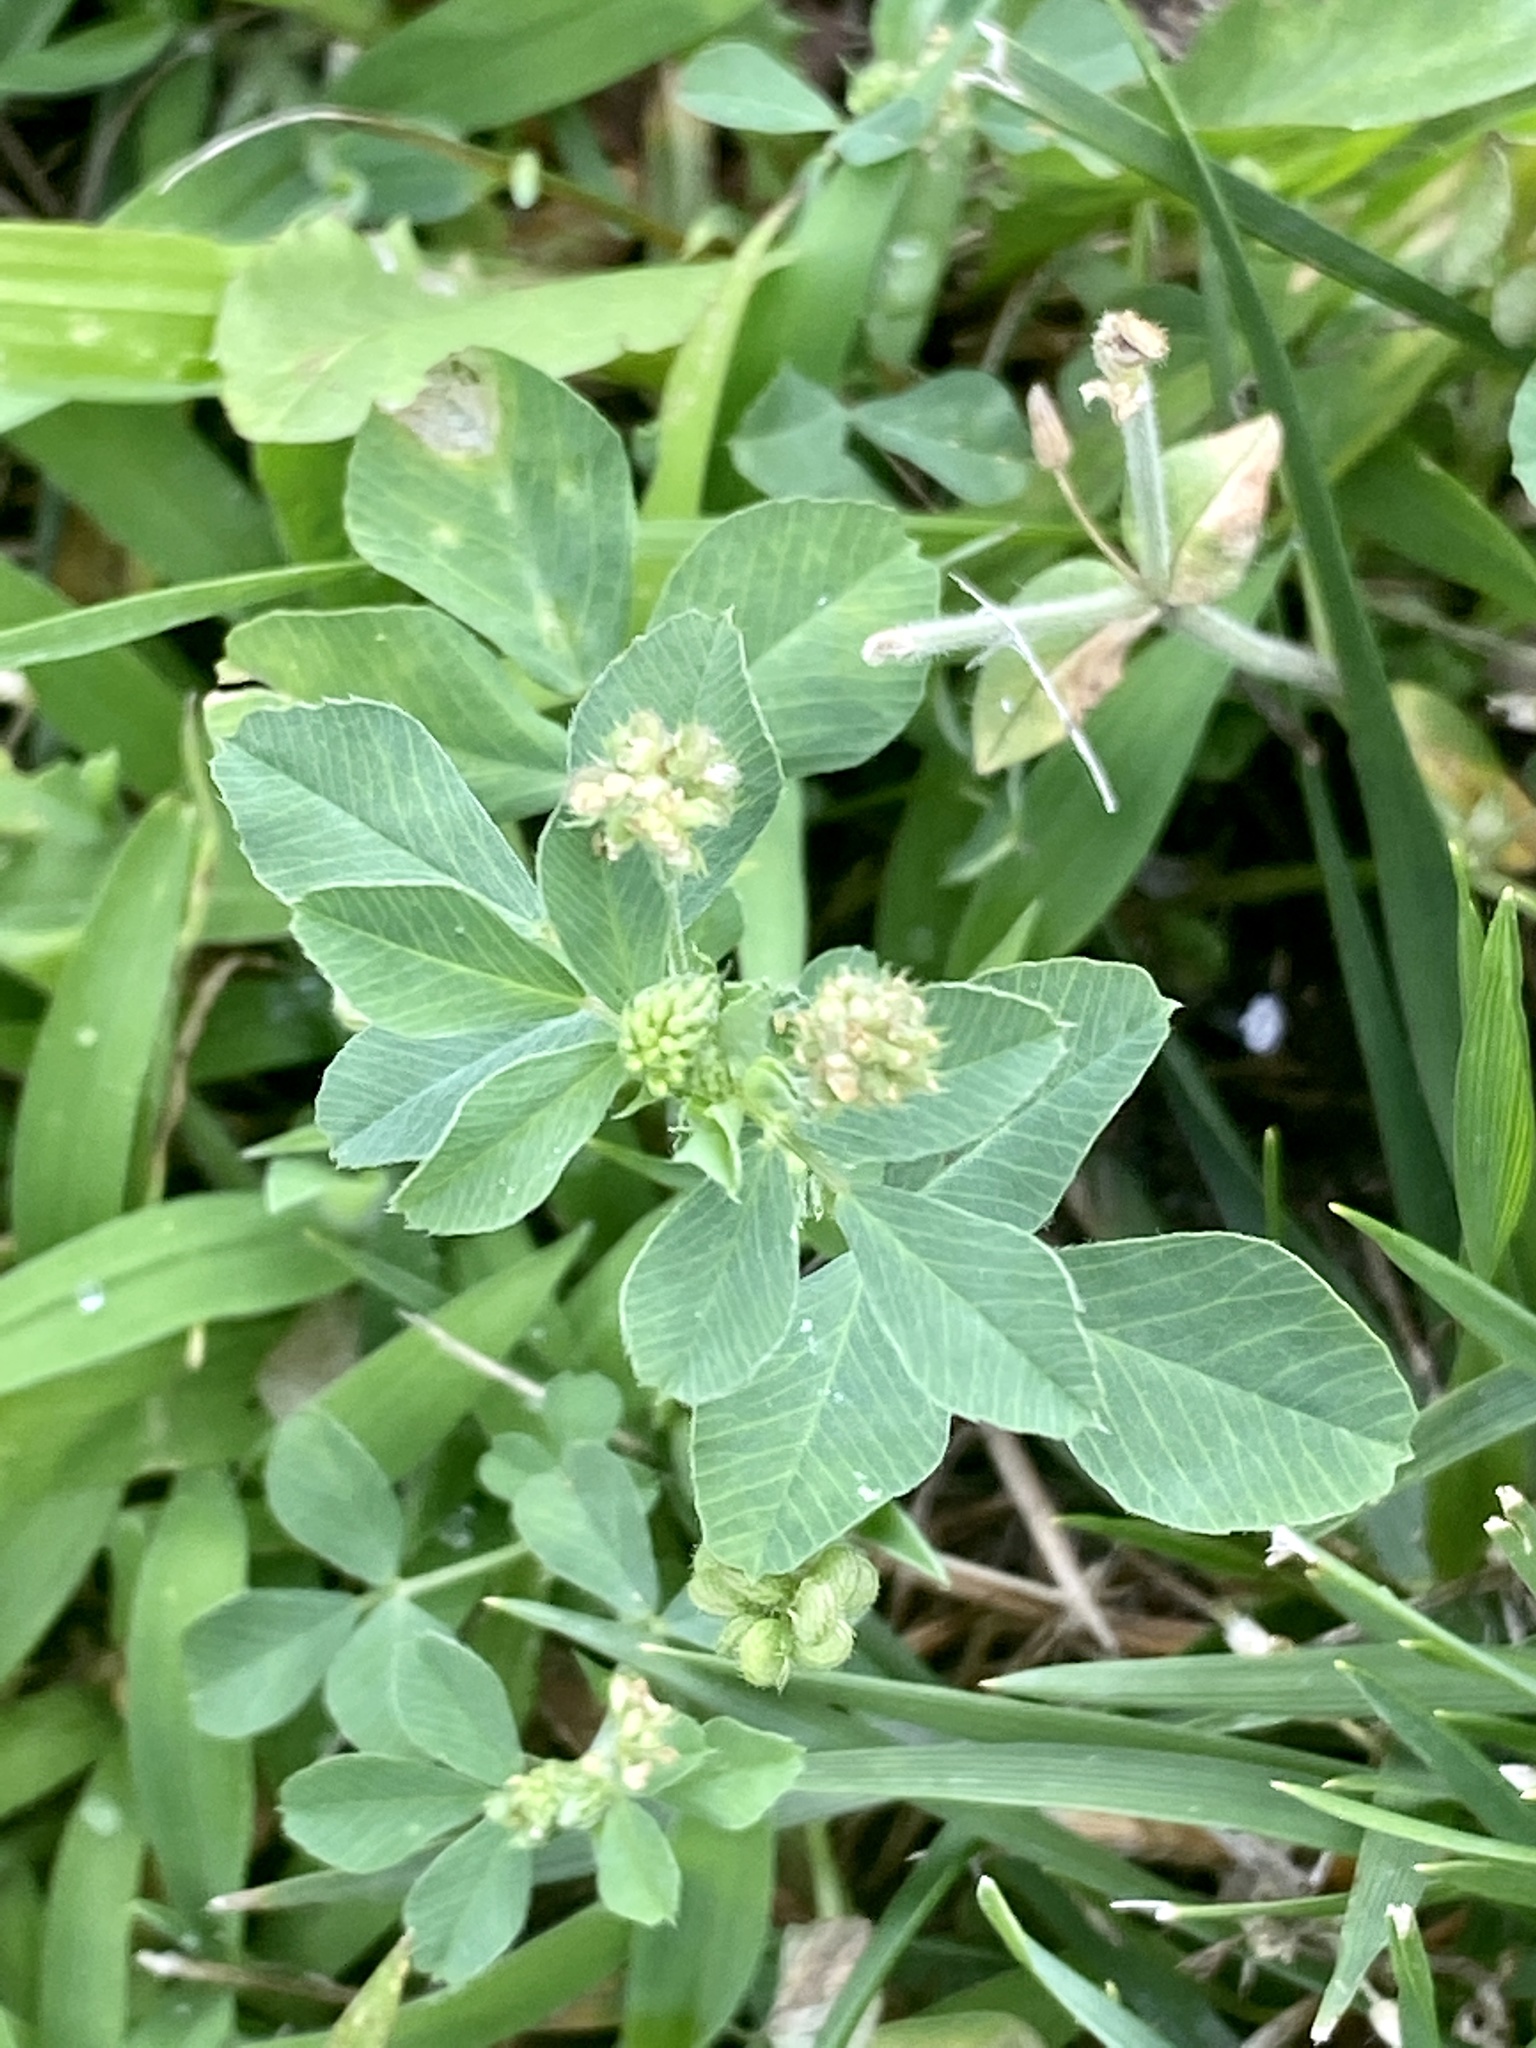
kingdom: Plantae
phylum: Tracheophyta
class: Magnoliopsida
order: Fabales
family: Fabaceae
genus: Medicago
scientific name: Medicago lupulina
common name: Black medick
